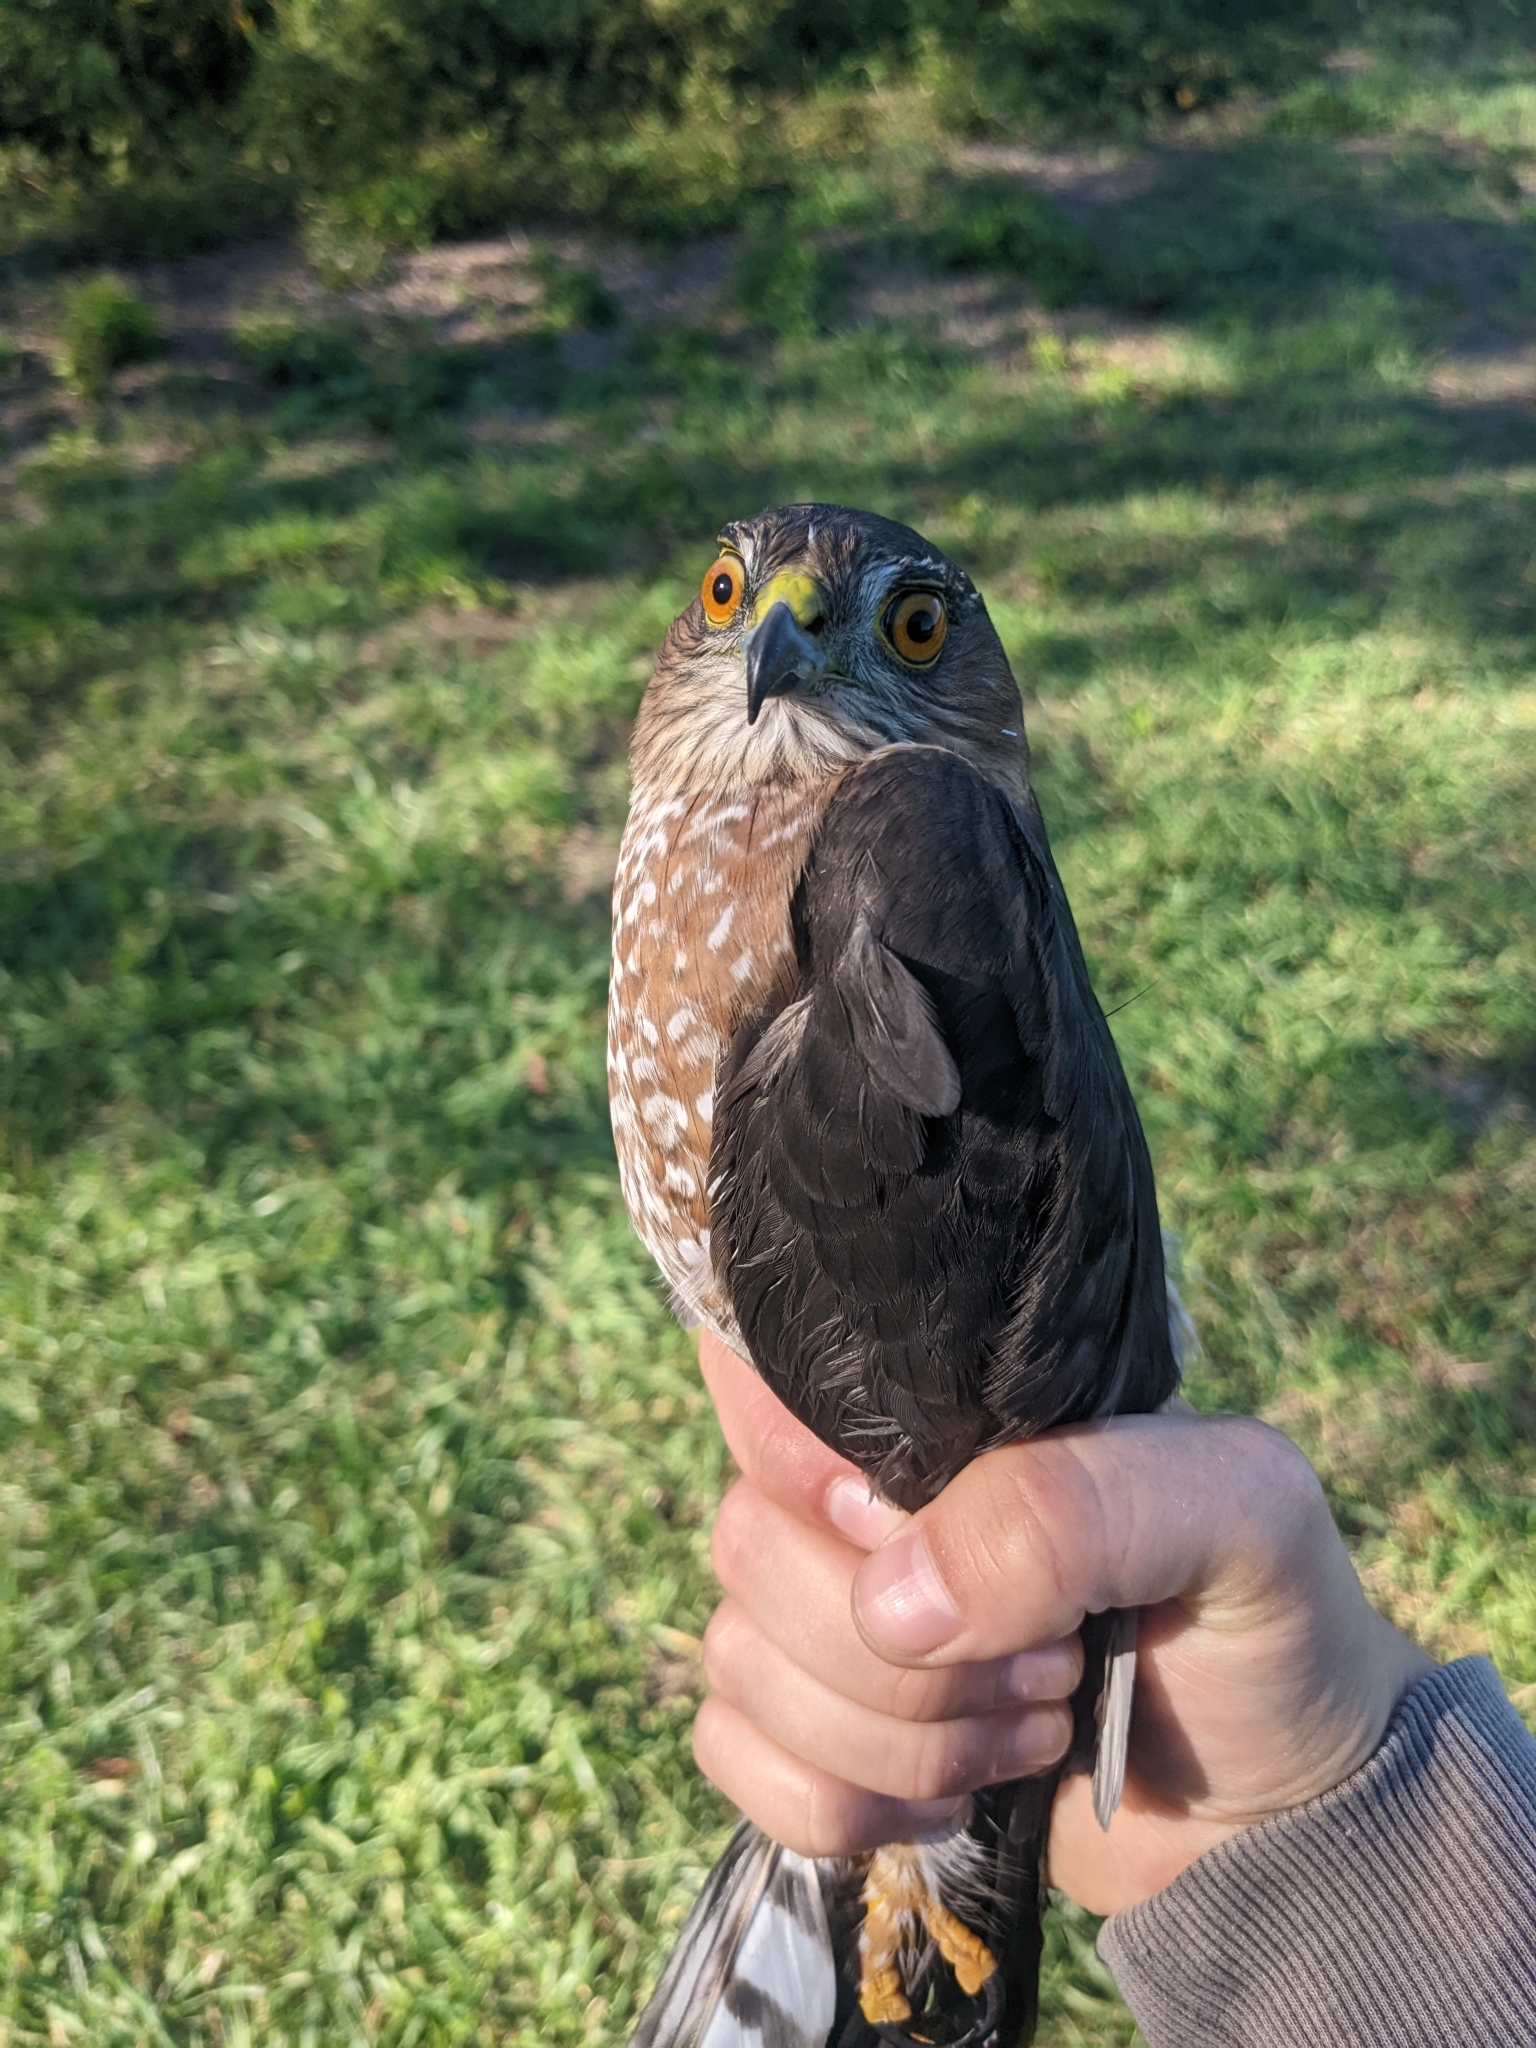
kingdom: Animalia
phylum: Chordata
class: Aves
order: Accipitriformes
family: Accipitridae
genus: Accipiter
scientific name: Accipiter striatus
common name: Sharp-shinned hawk
